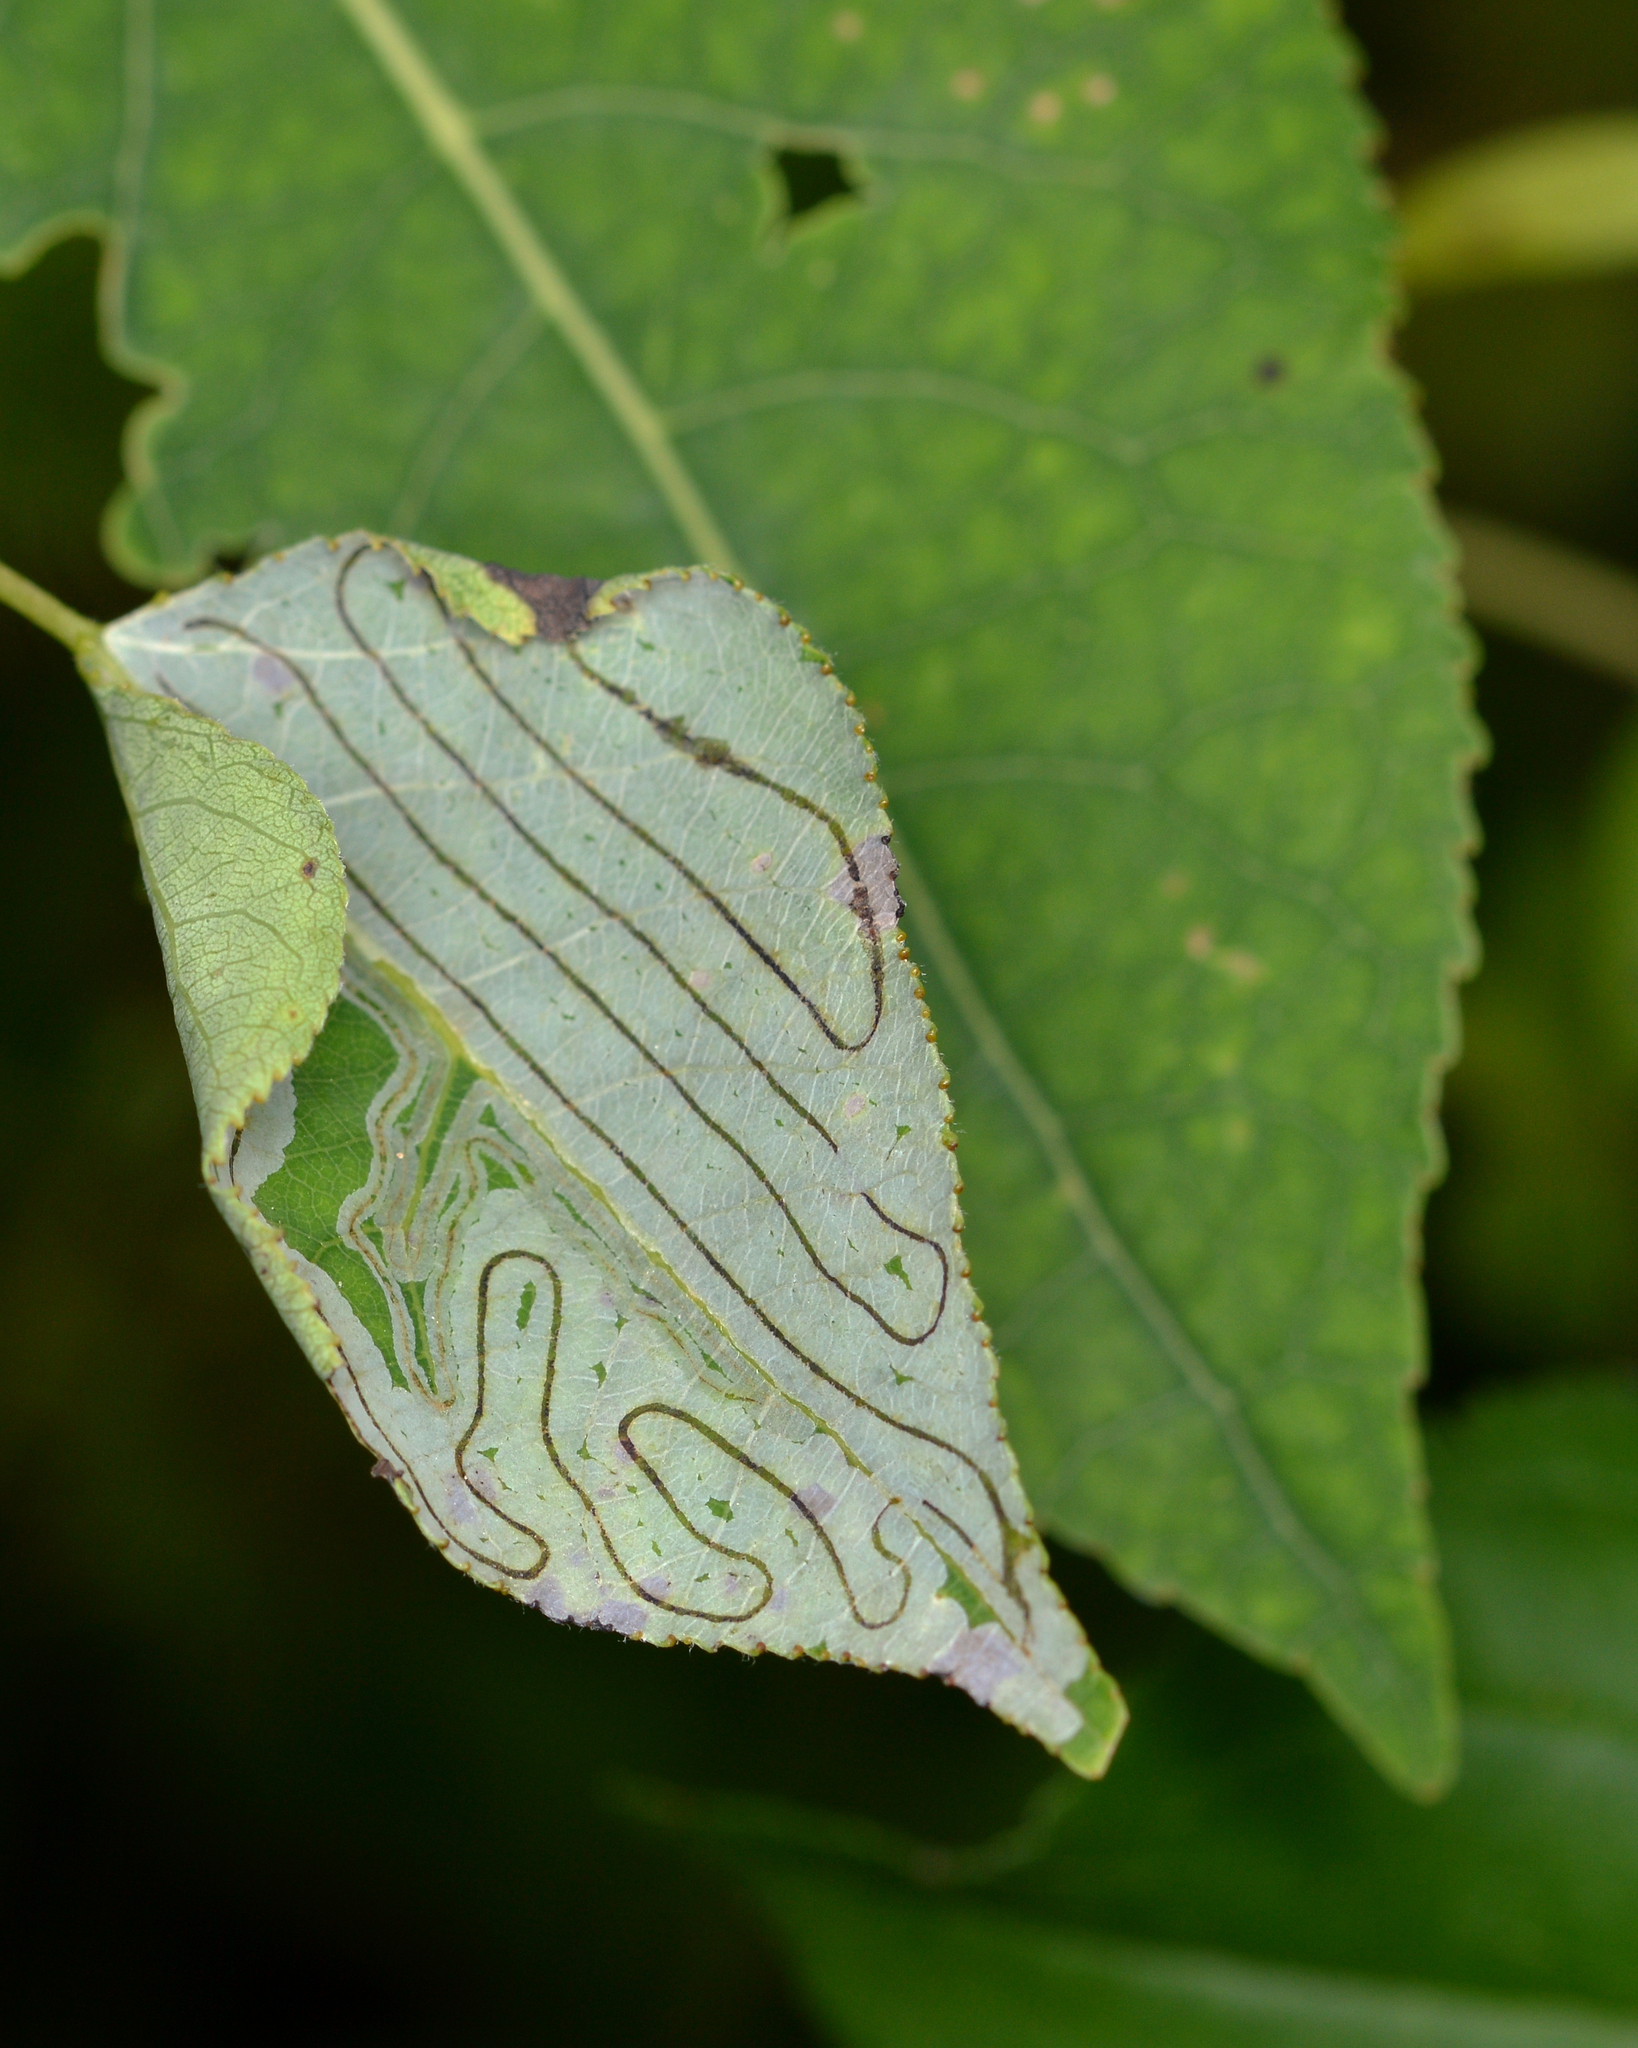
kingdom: Animalia
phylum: Arthropoda
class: Insecta
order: Lepidoptera
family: Gracillariidae
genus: Phyllocnistis
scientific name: Phyllocnistis populiella
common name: Aspen serpentine leafminer moth
